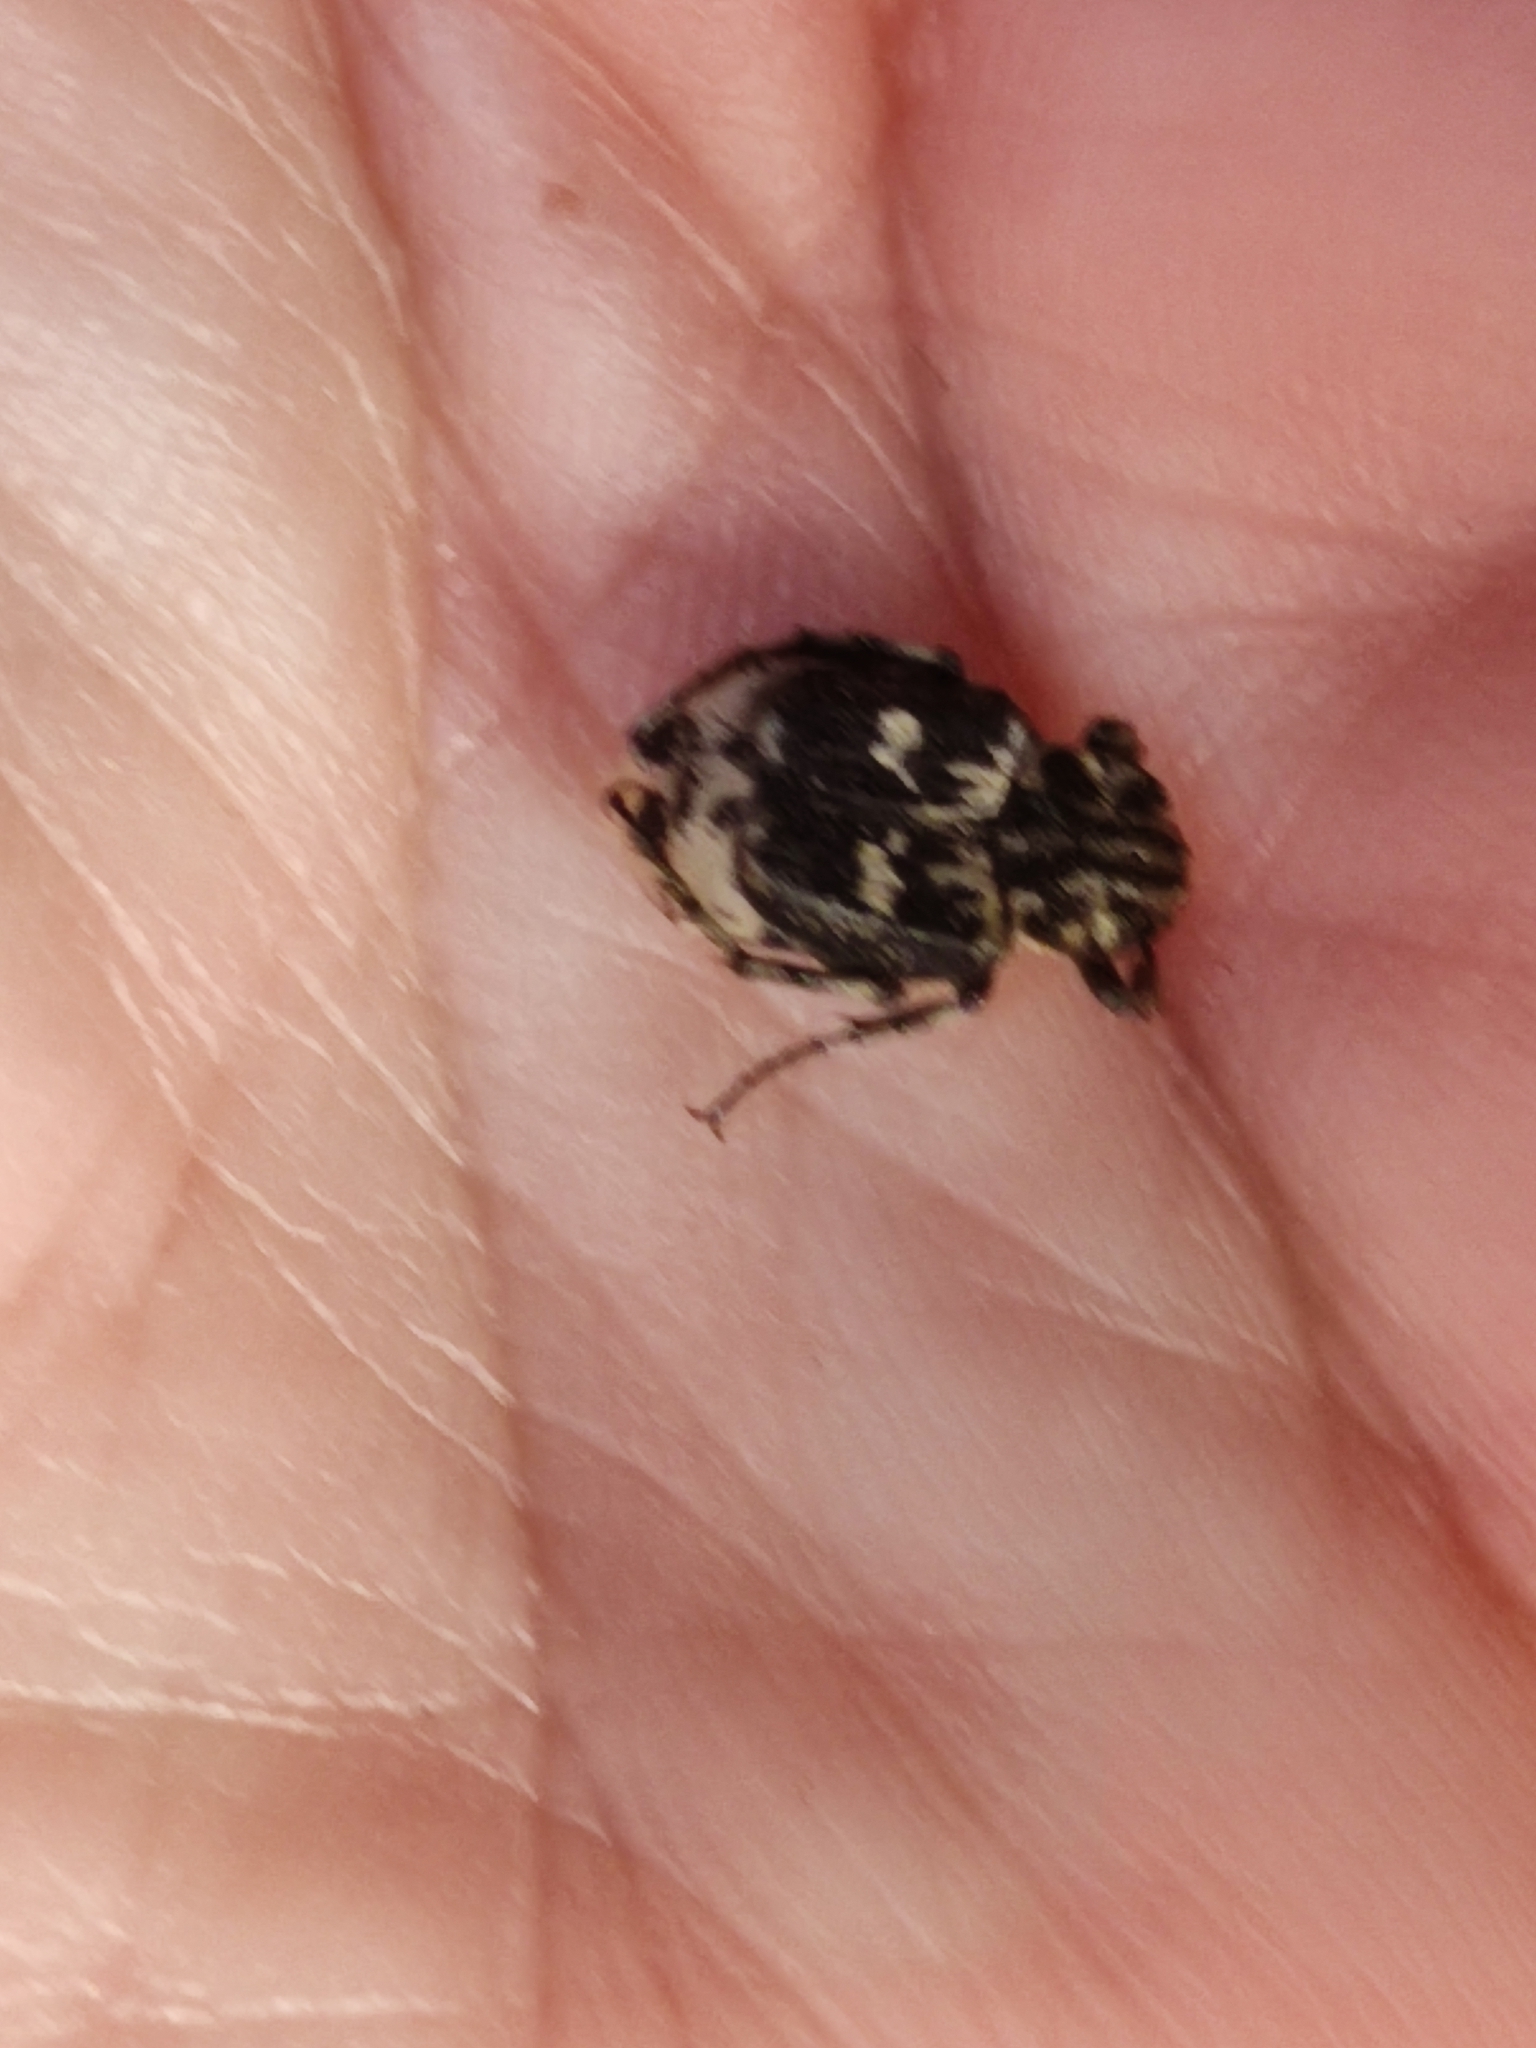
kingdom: Animalia
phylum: Arthropoda
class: Insecta
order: Coleoptera
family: Scarabaeidae
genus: Valgus
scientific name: Valgus hemipterus
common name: Bug flower chafer
